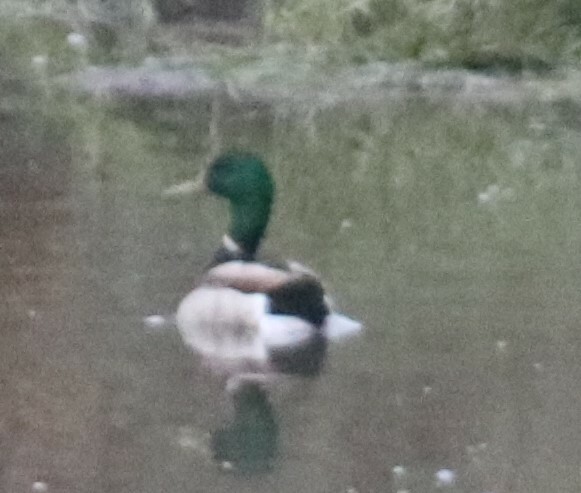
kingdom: Animalia
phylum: Chordata
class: Aves
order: Anseriformes
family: Anatidae
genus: Anas
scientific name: Anas platyrhynchos
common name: Mallard
